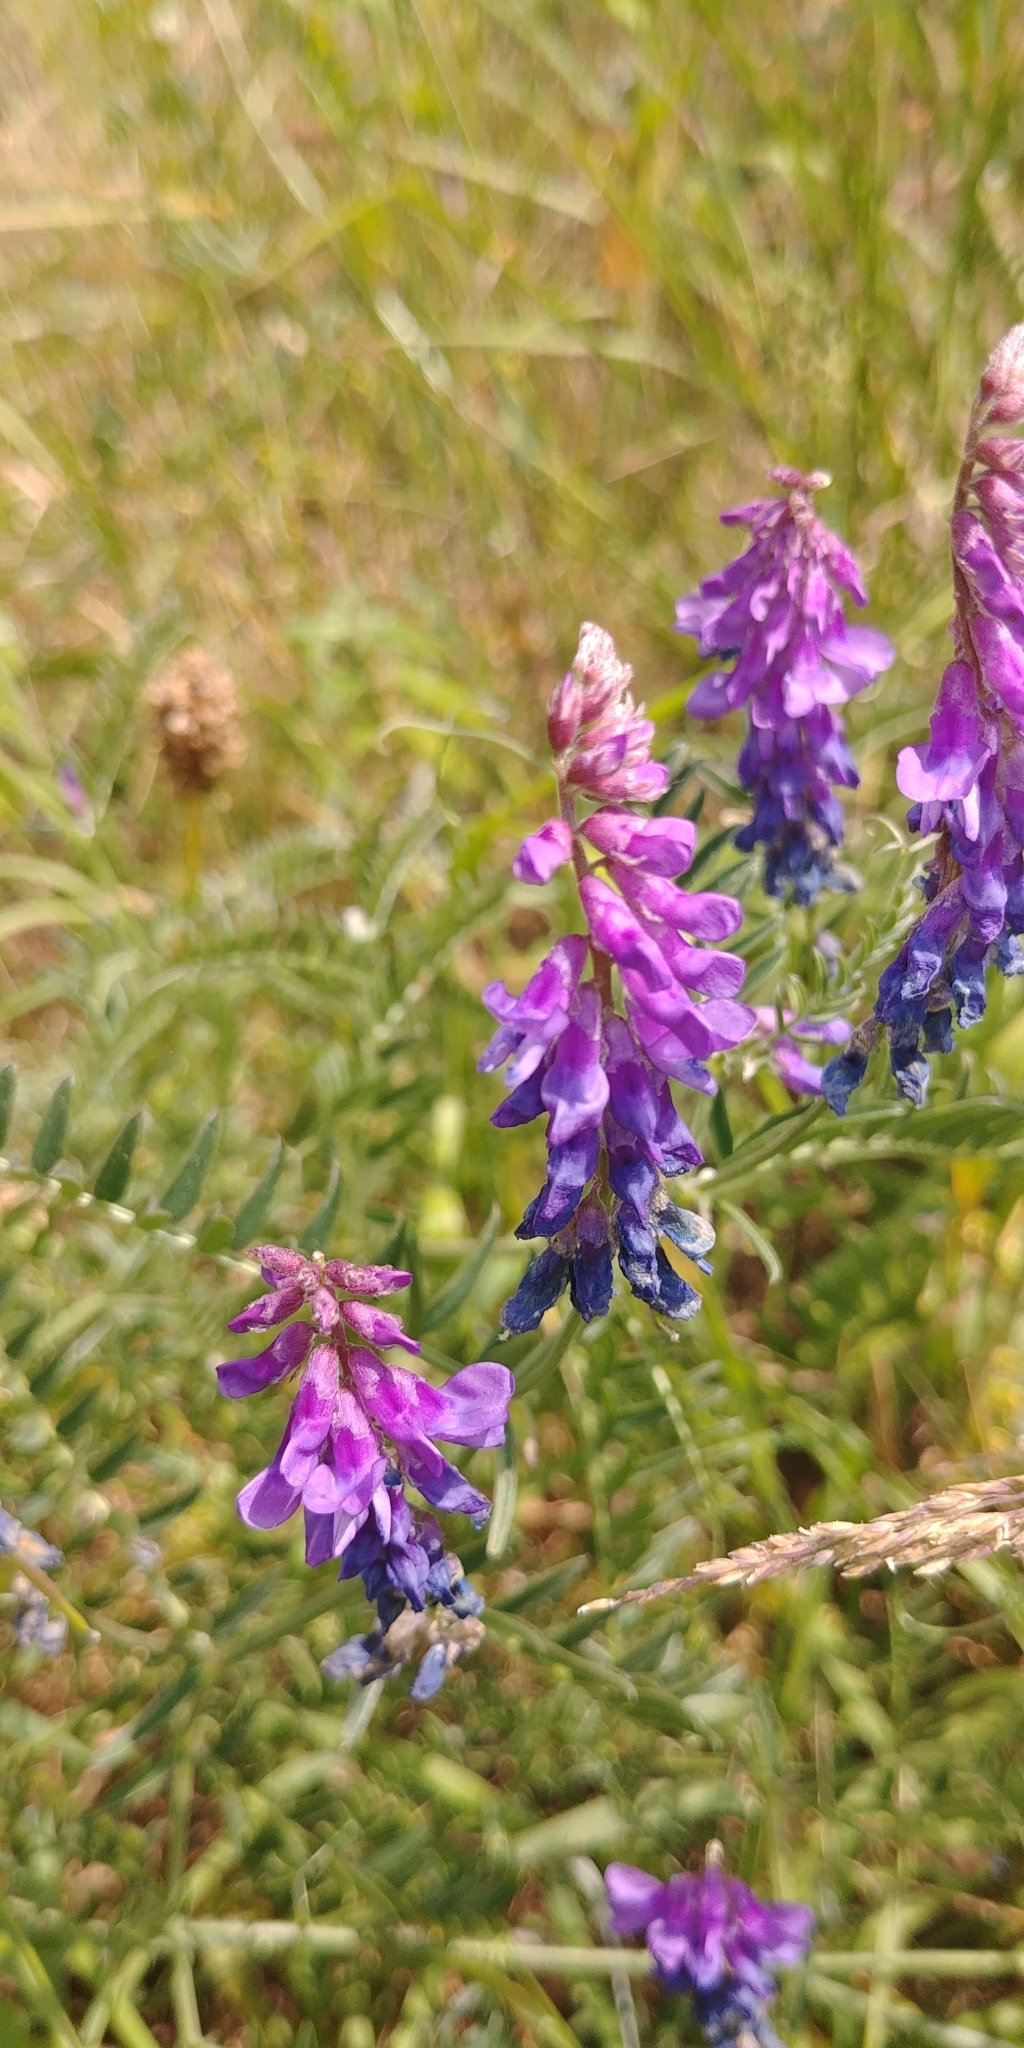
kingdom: Plantae
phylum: Tracheophyta
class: Magnoliopsida
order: Fabales
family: Fabaceae
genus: Vicia
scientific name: Vicia cracca
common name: Bird vetch
